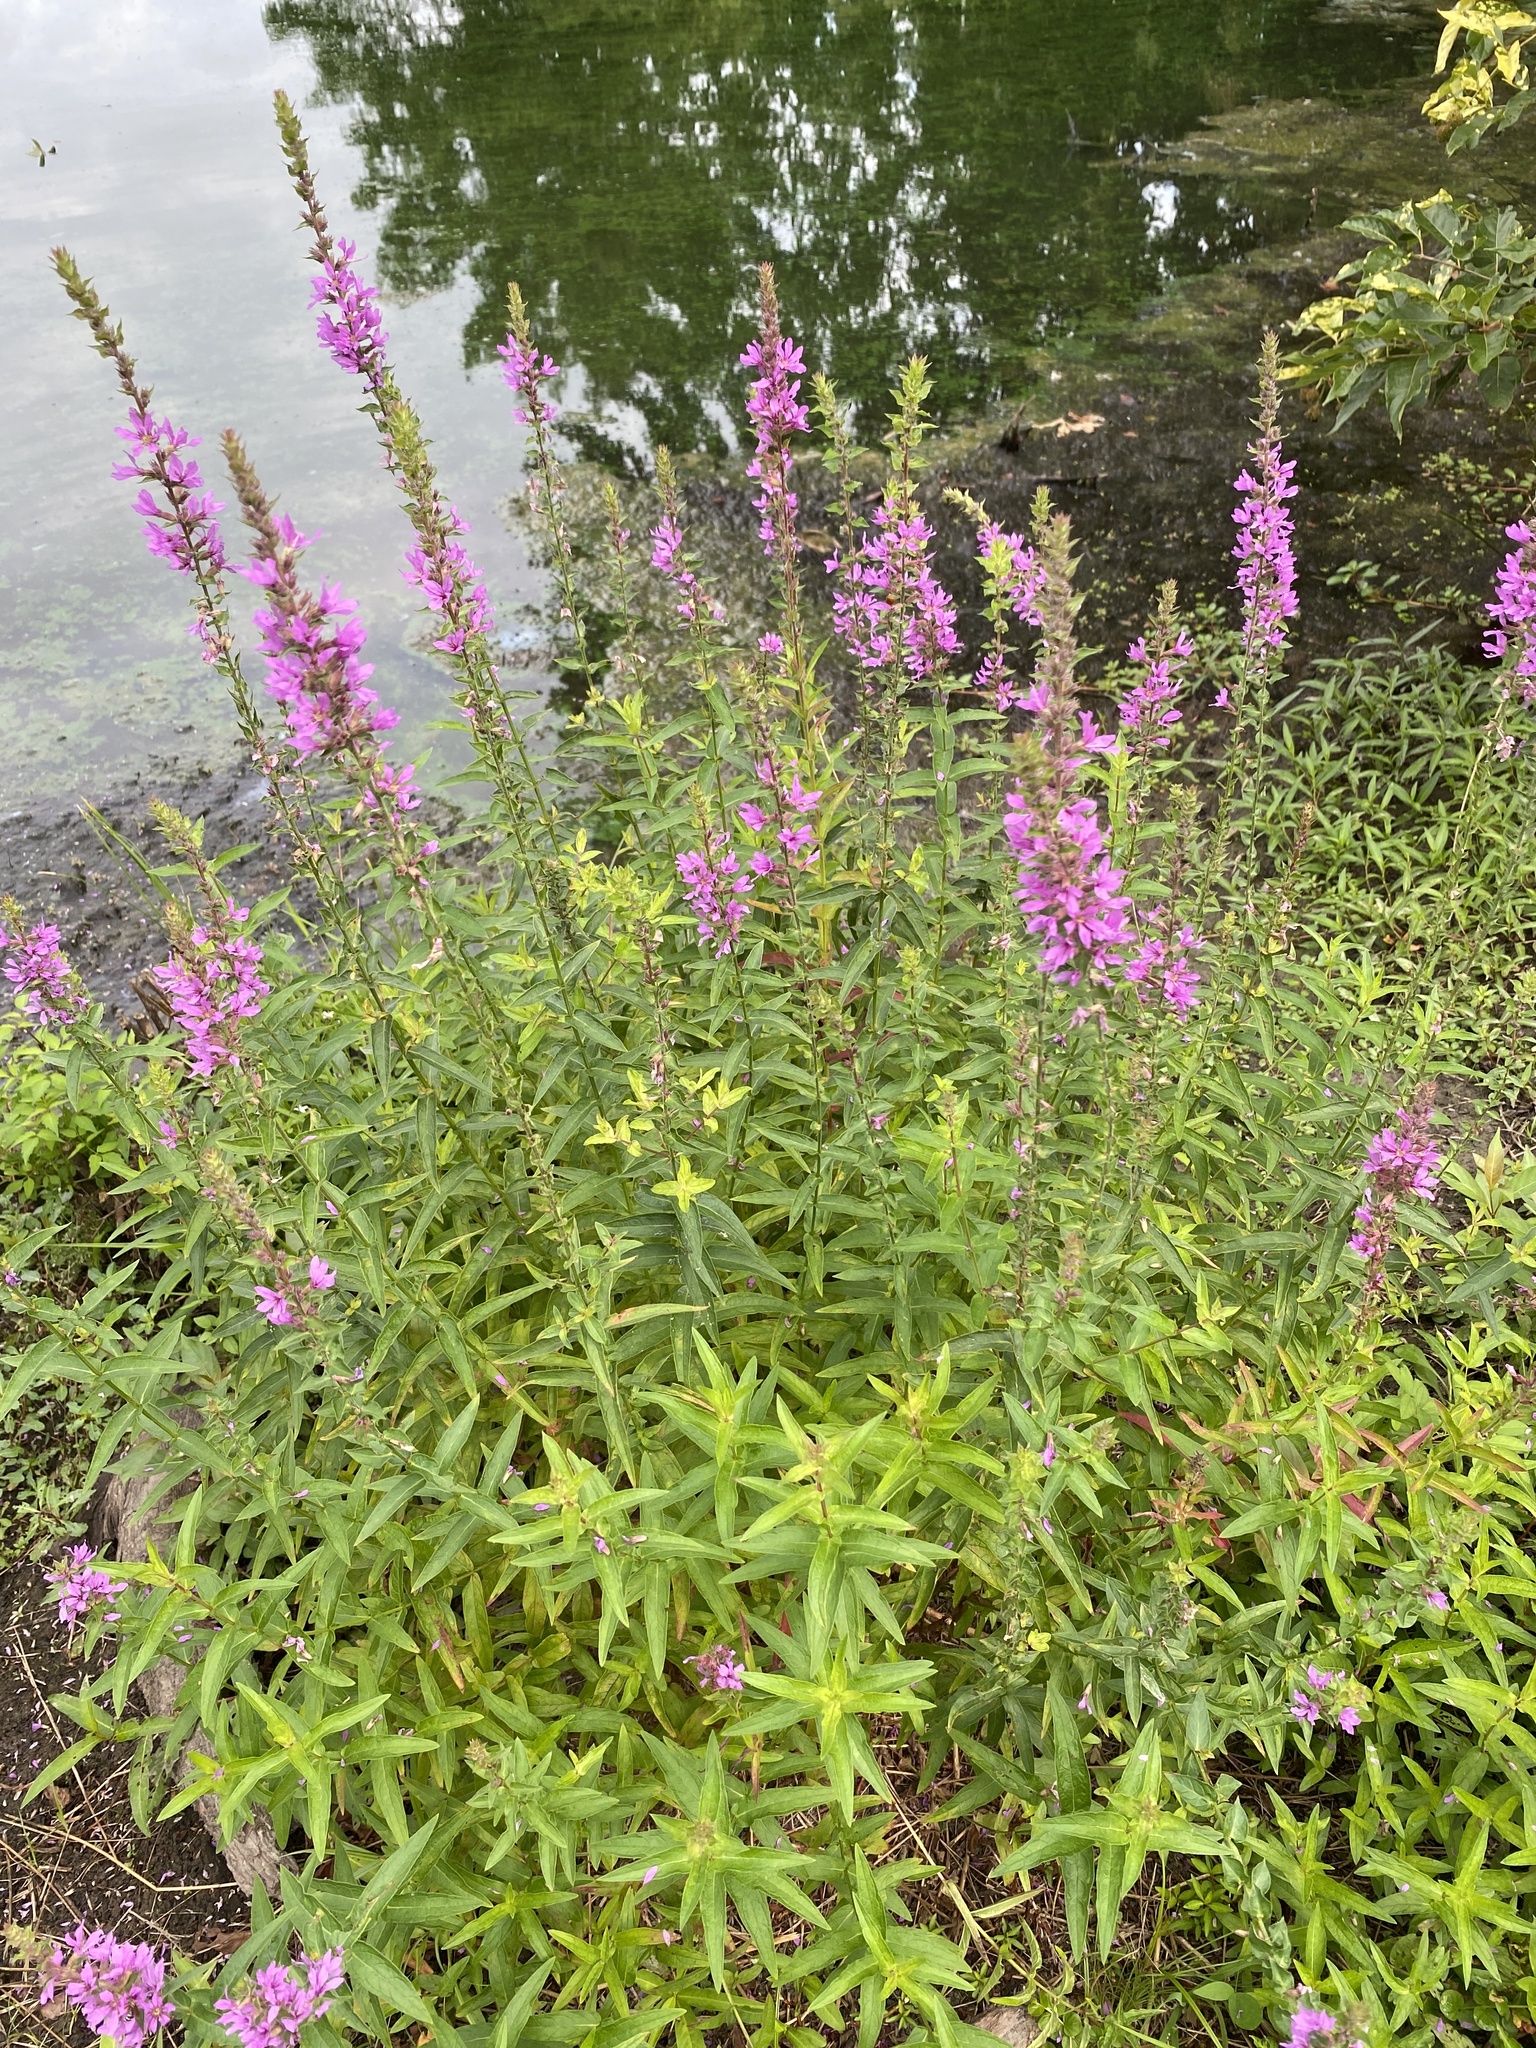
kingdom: Plantae
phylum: Tracheophyta
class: Magnoliopsida
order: Myrtales
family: Lythraceae
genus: Lythrum
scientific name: Lythrum salicaria
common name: Purple loosestrife
